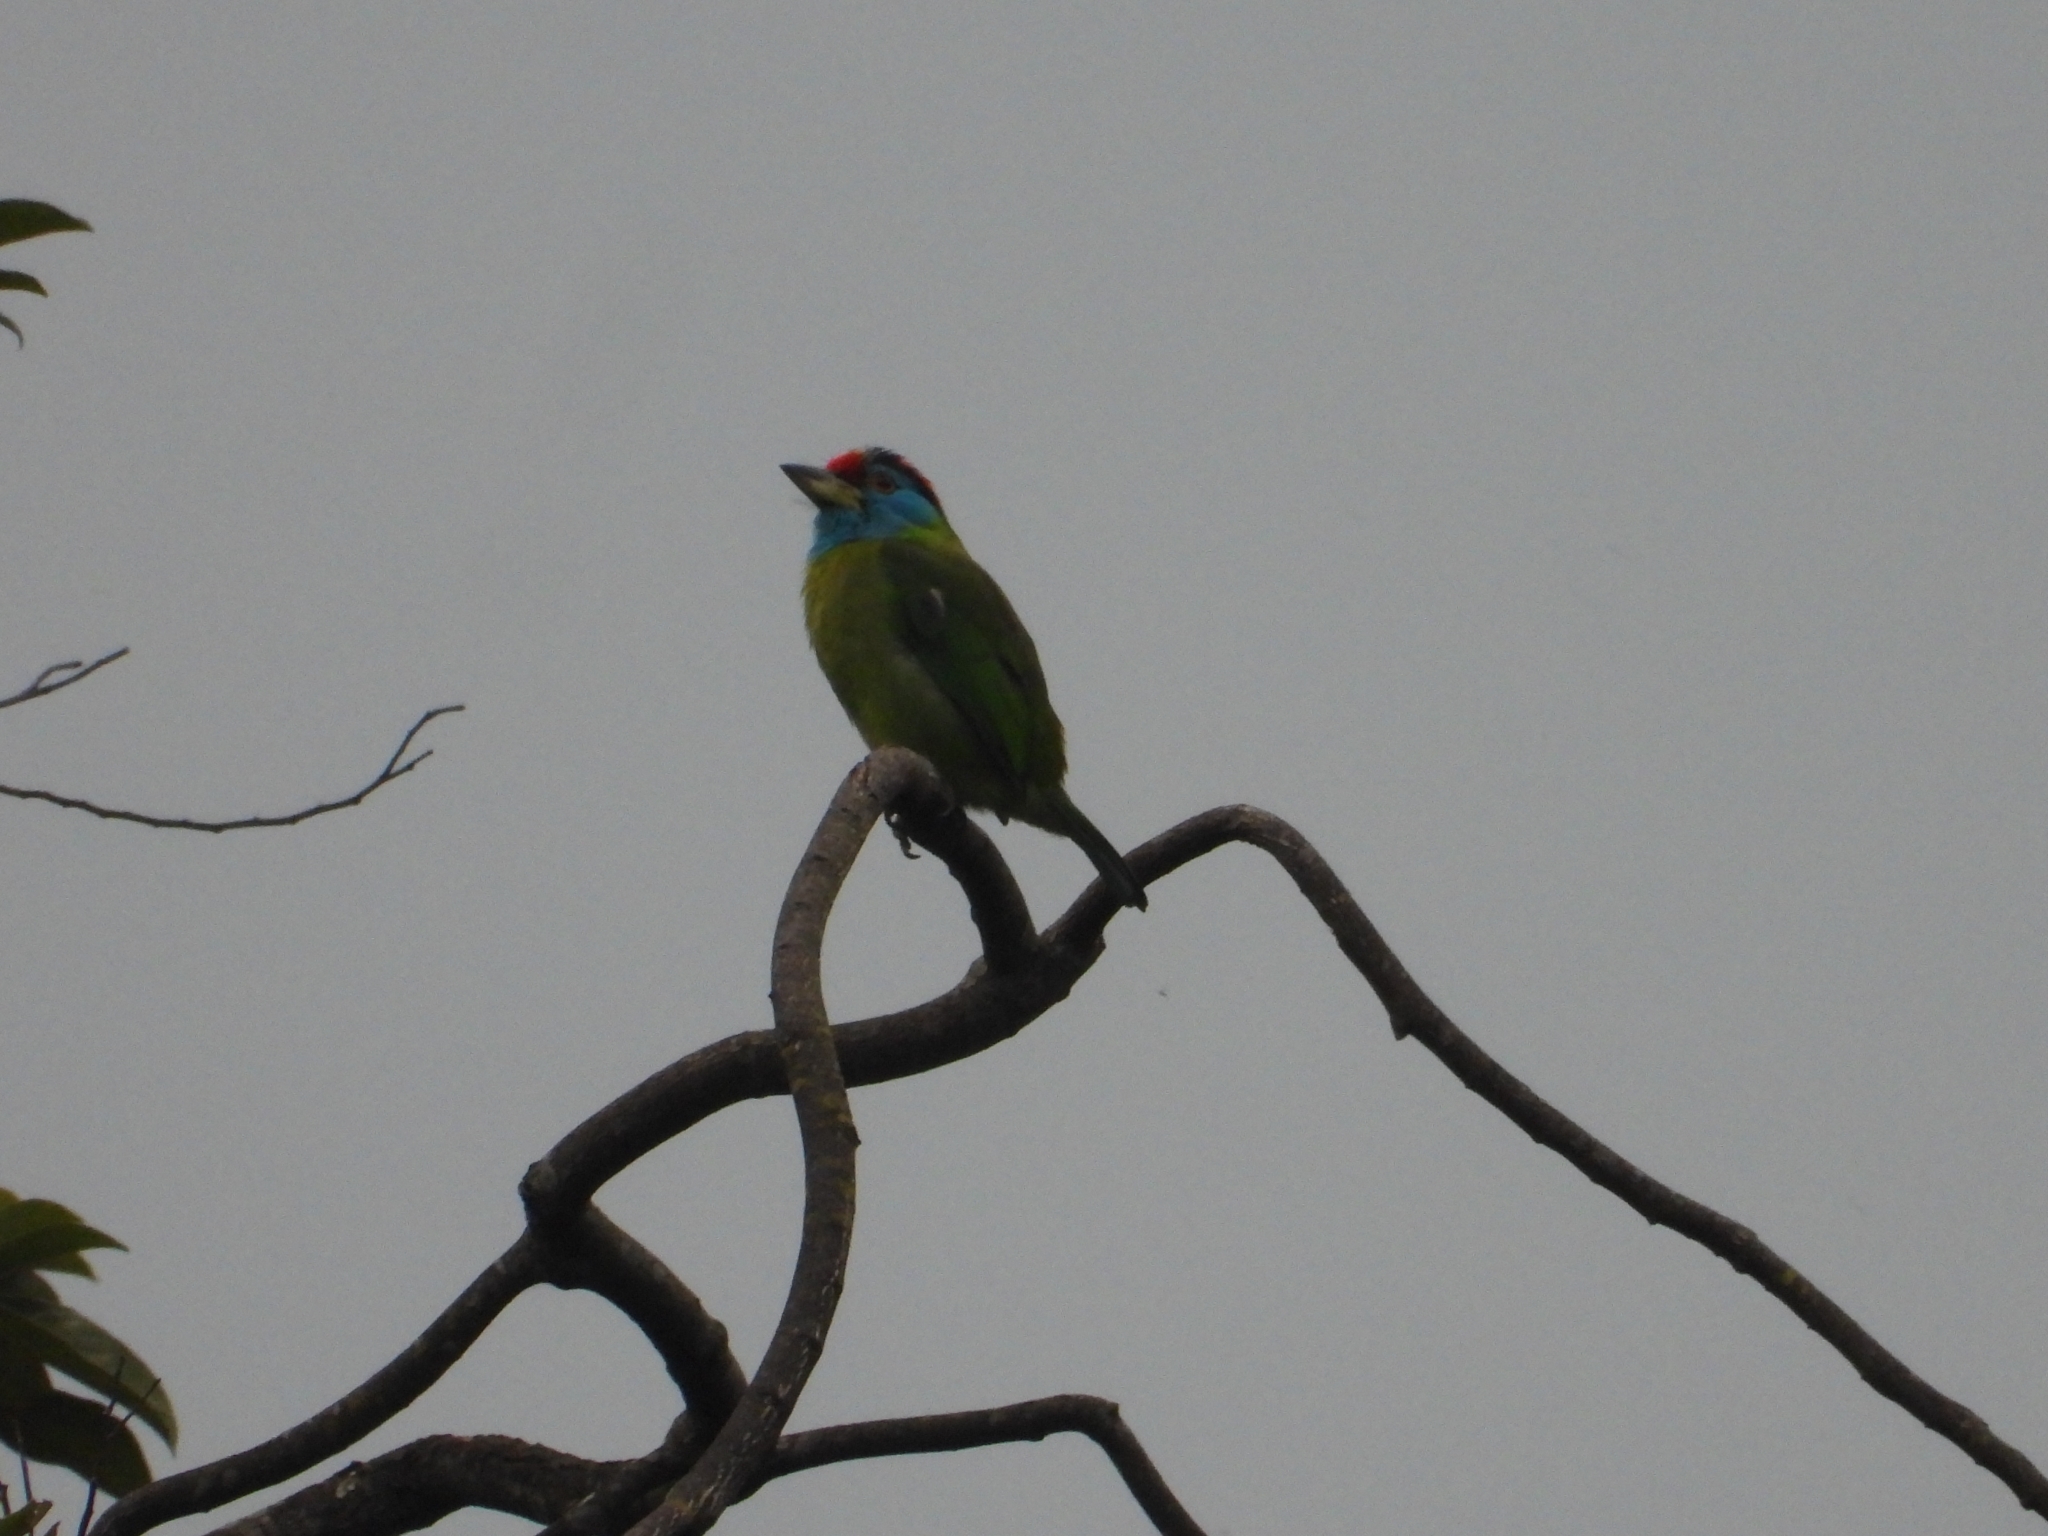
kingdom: Animalia
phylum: Chordata
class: Aves
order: Piciformes
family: Megalaimidae
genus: Psilopogon
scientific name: Psilopogon asiaticus
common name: Blue-throated barbet
